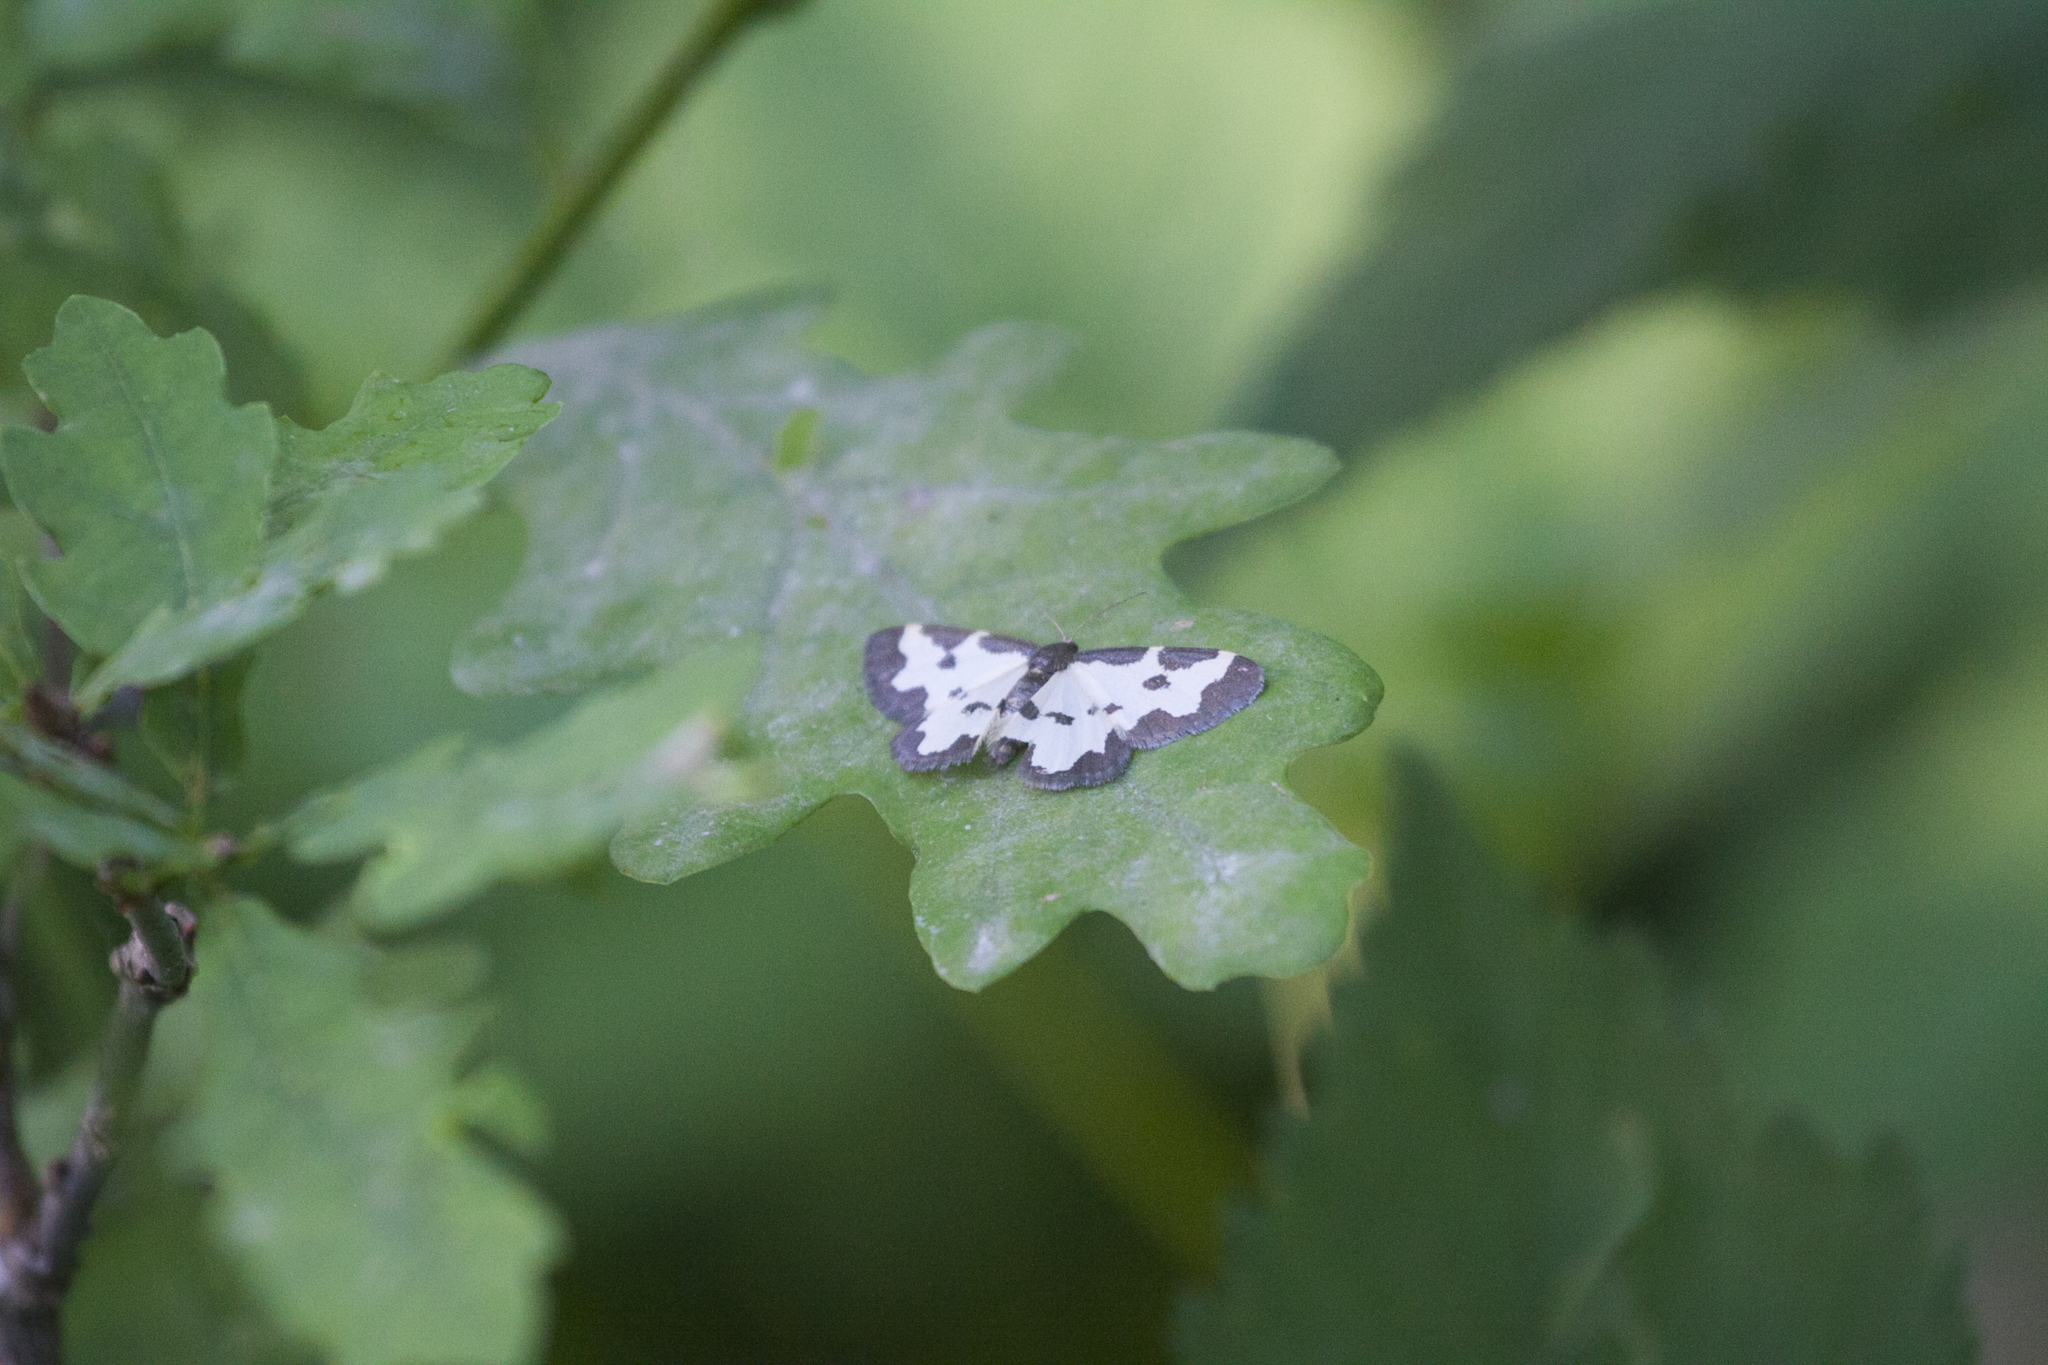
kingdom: Animalia
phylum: Arthropoda
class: Insecta
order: Lepidoptera
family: Geometridae
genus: Lomaspilis
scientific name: Lomaspilis marginata
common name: Clouded border
